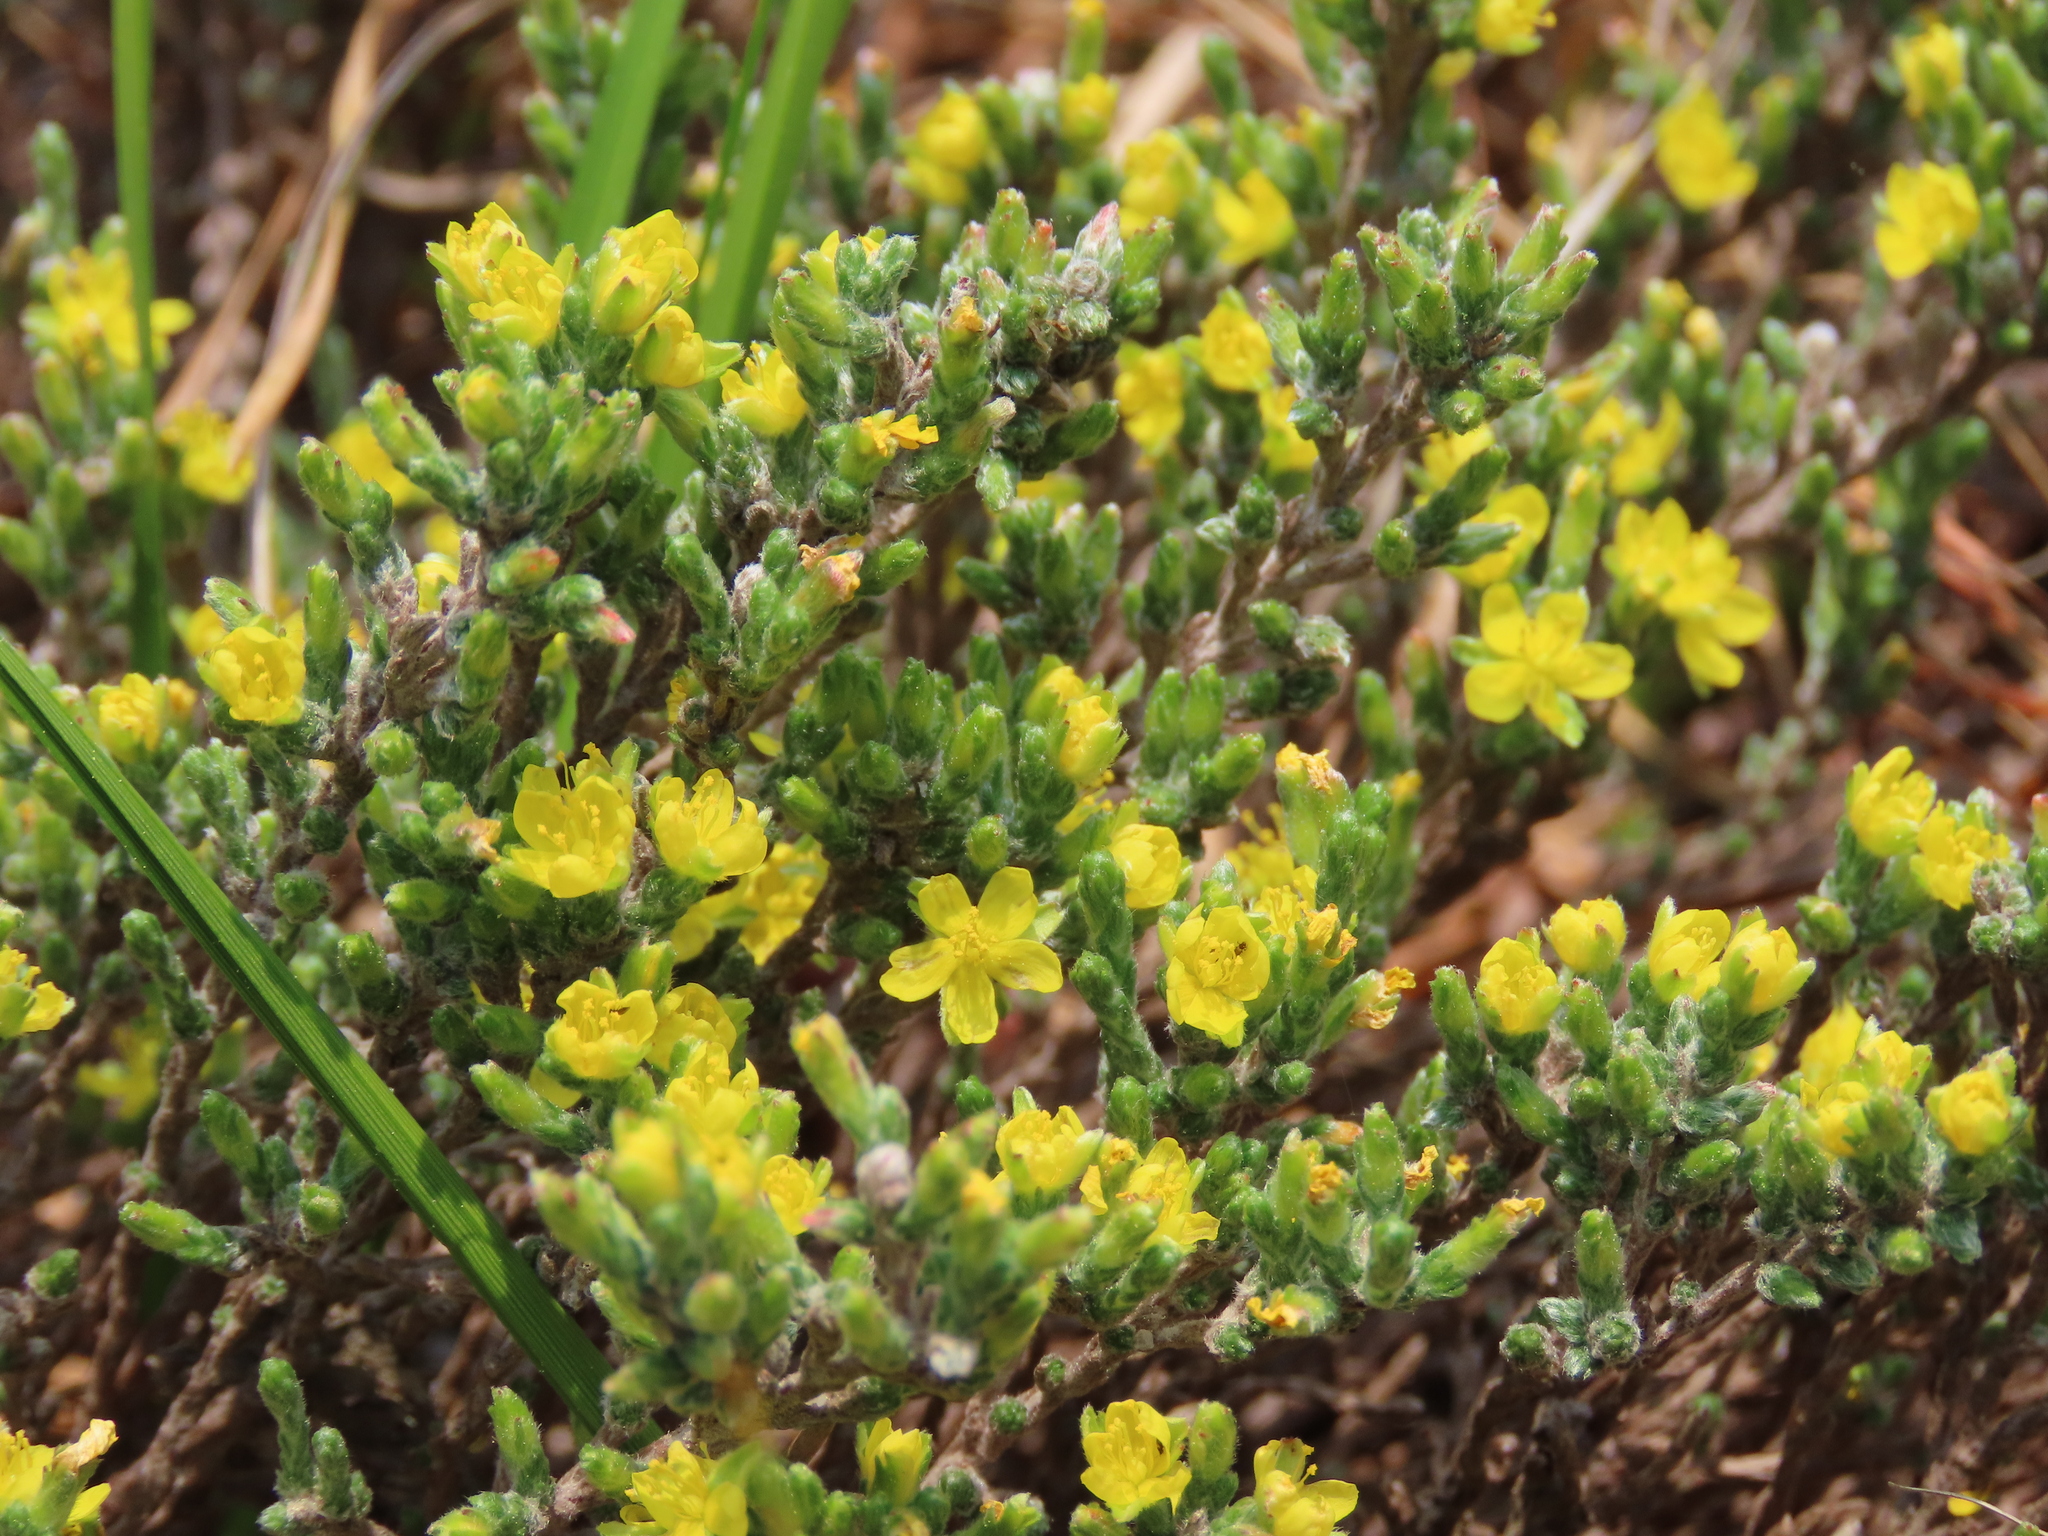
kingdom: Plantae
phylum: Tracheophyta
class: Magnoliopsida
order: Malvales
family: Cistaceae
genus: Hudsonia
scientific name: Hudsonia tomentosa
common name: Beach-heath
